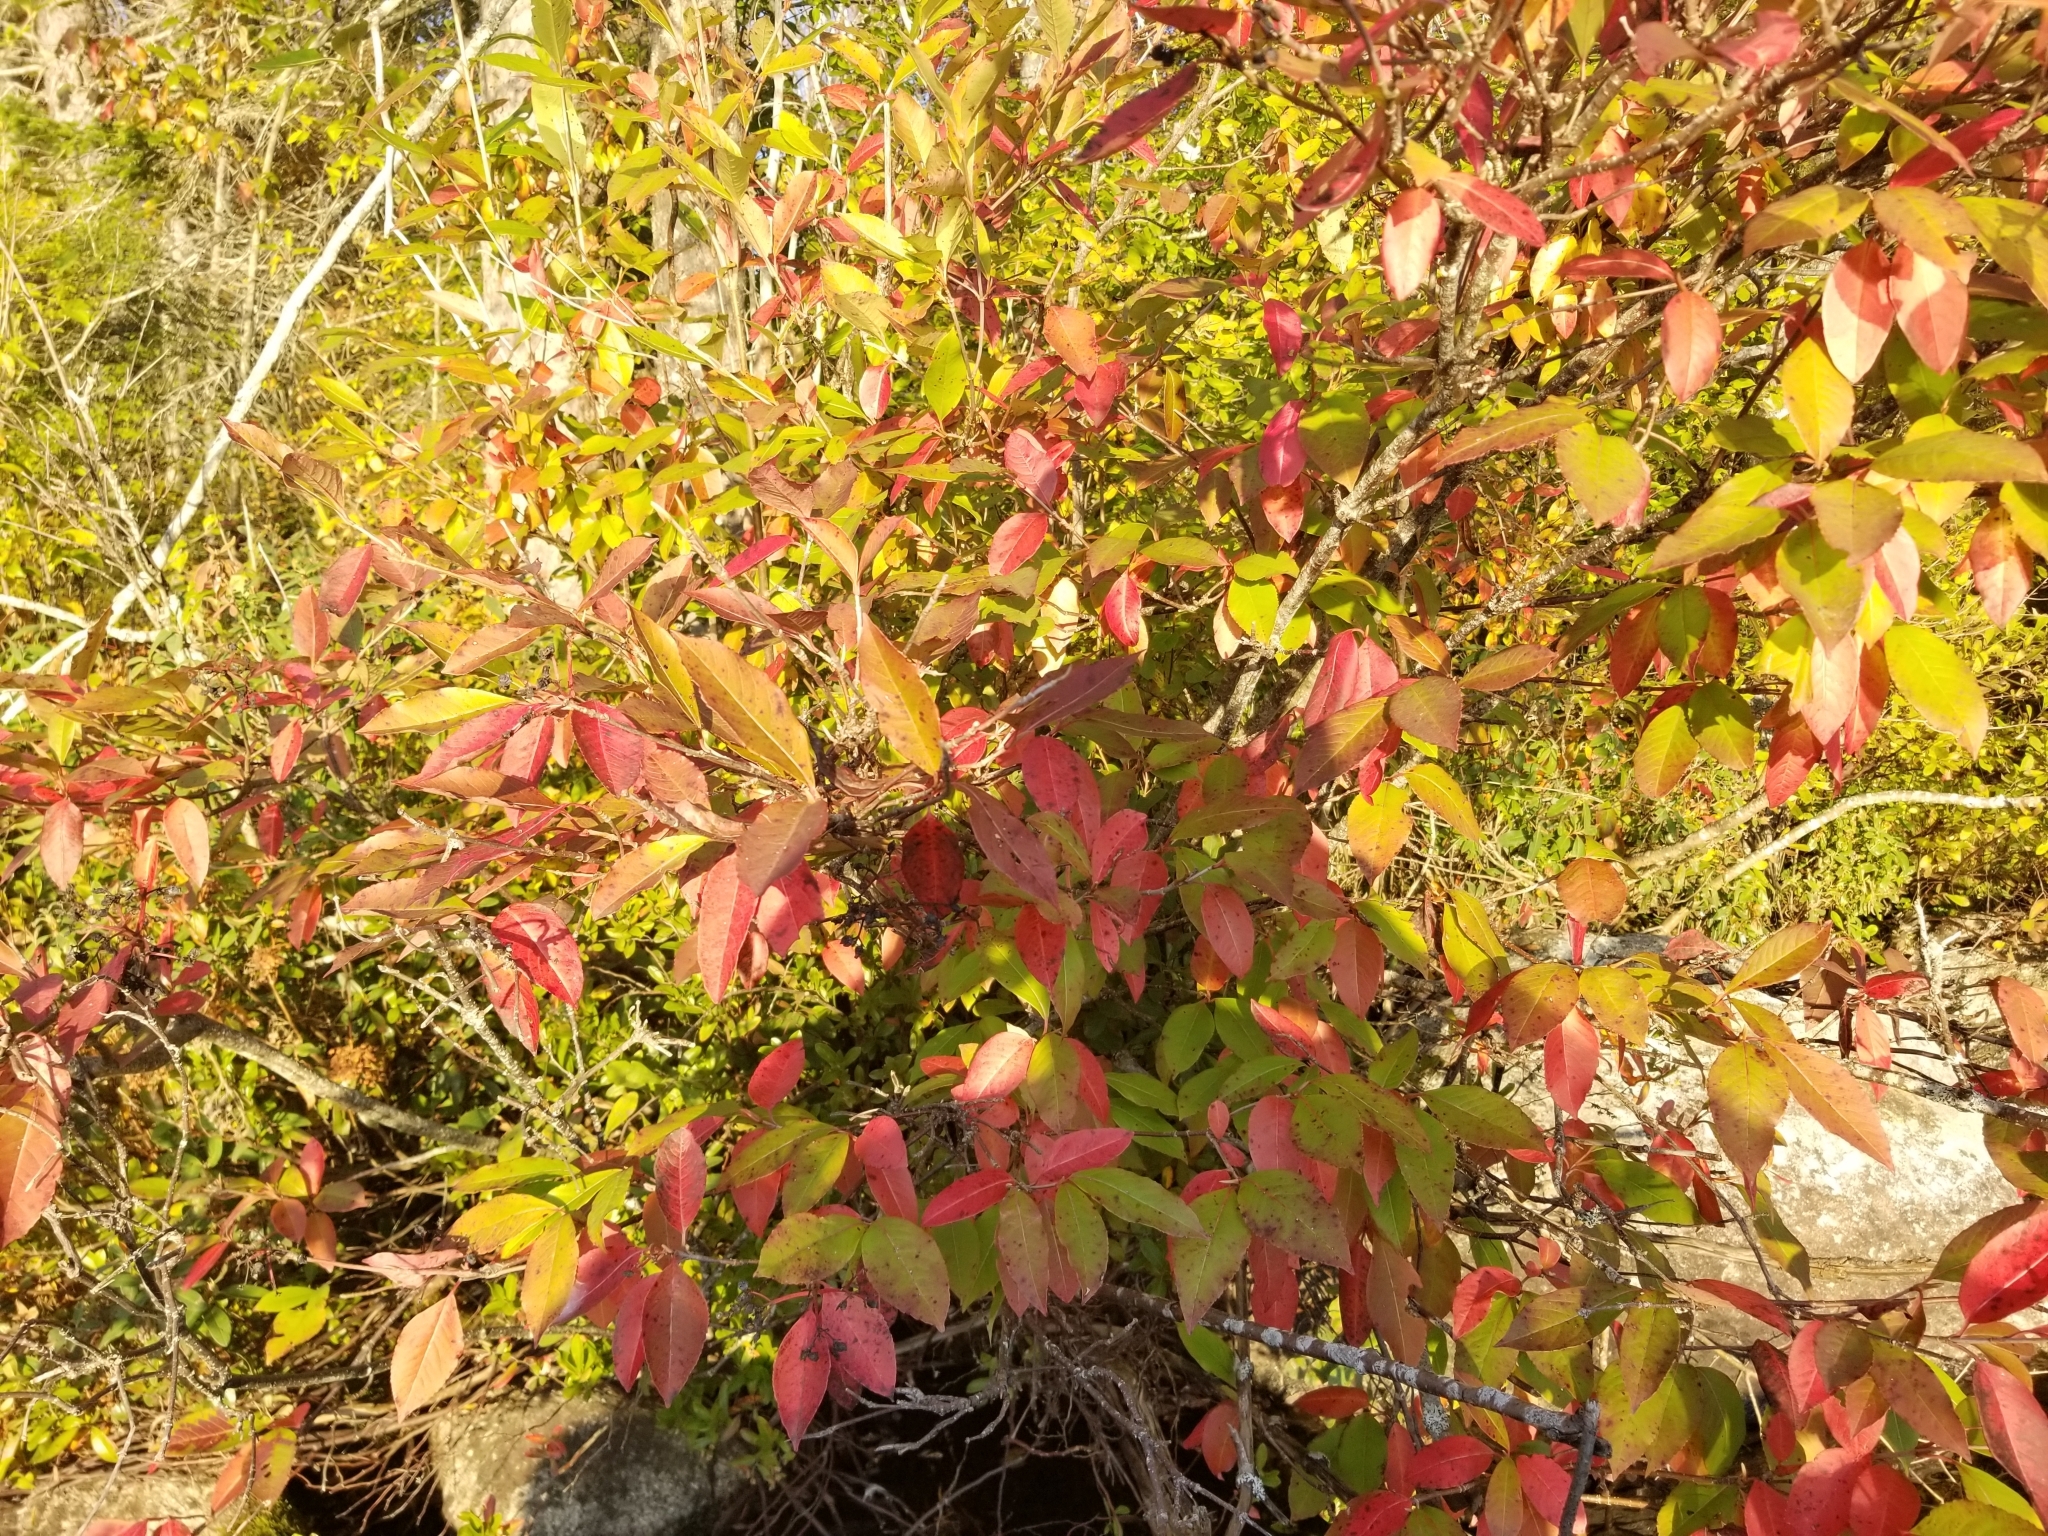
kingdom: Plantae
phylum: Tracheophyta
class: Magnoliopsida
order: Dipsacales
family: Viburnaceae
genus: Viburnum
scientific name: Viburnum cassinoides
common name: Swamp haw
